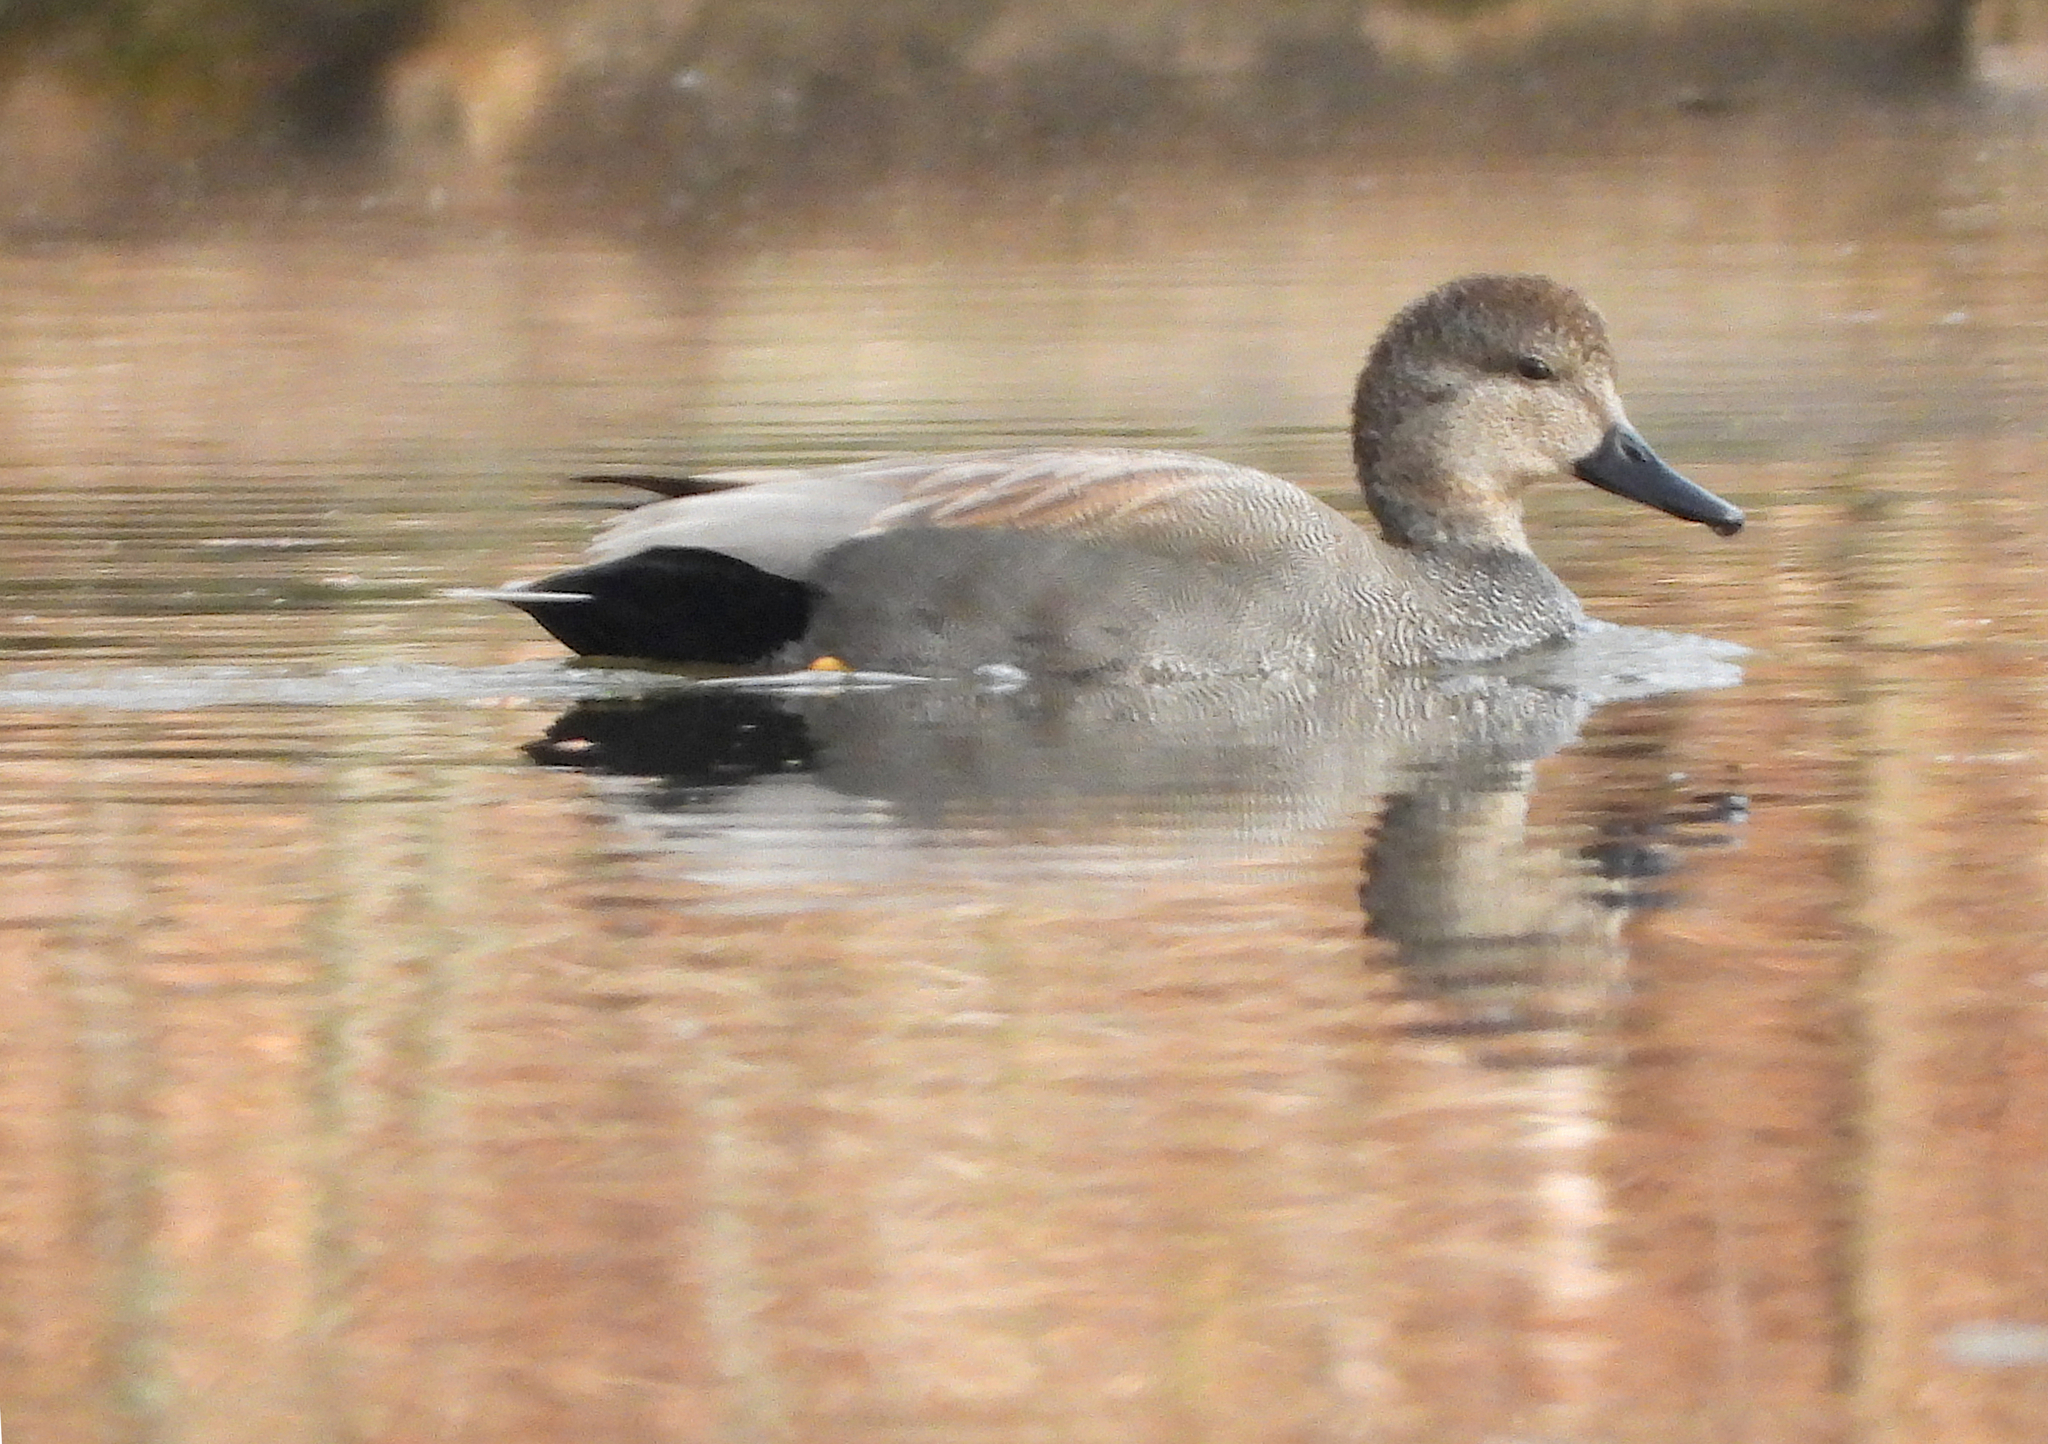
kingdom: Animalia
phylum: Chordata
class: Aves
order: Anseriformes
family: Anatidae
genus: Mareca
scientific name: Mareca strepera
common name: Gadwall
